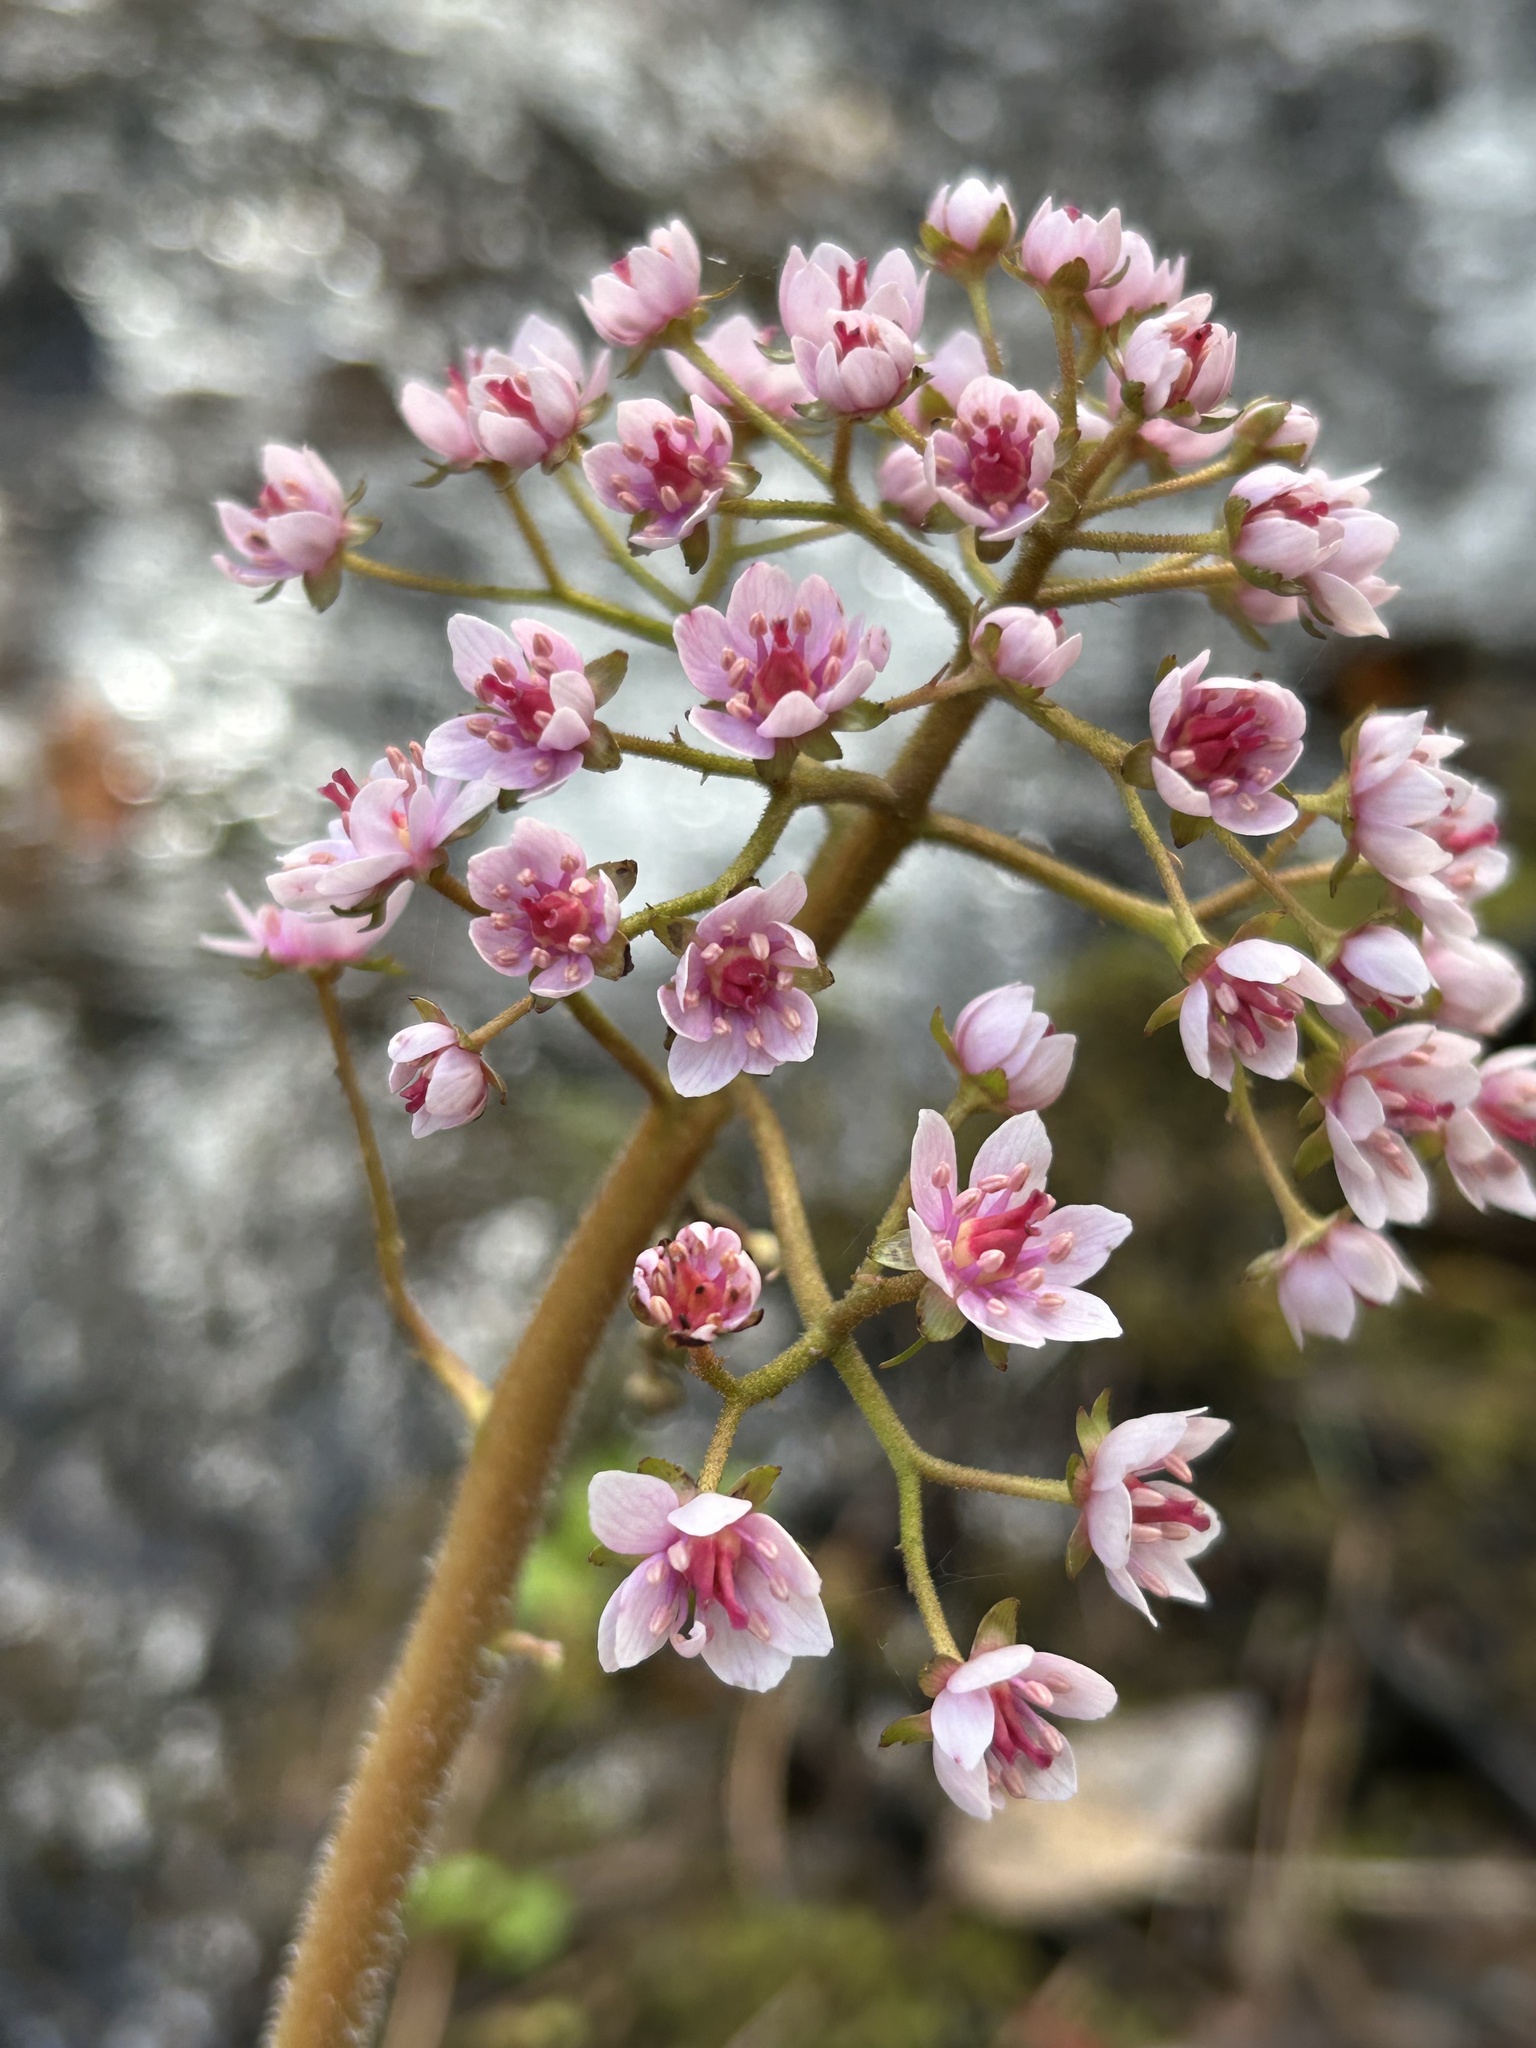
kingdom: Plantae
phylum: Tracheophyta
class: Magnoliopsida
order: Saxifragales
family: Saxifragaceae
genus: Darmera
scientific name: Darmera peltata
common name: Indian-rhubarb
